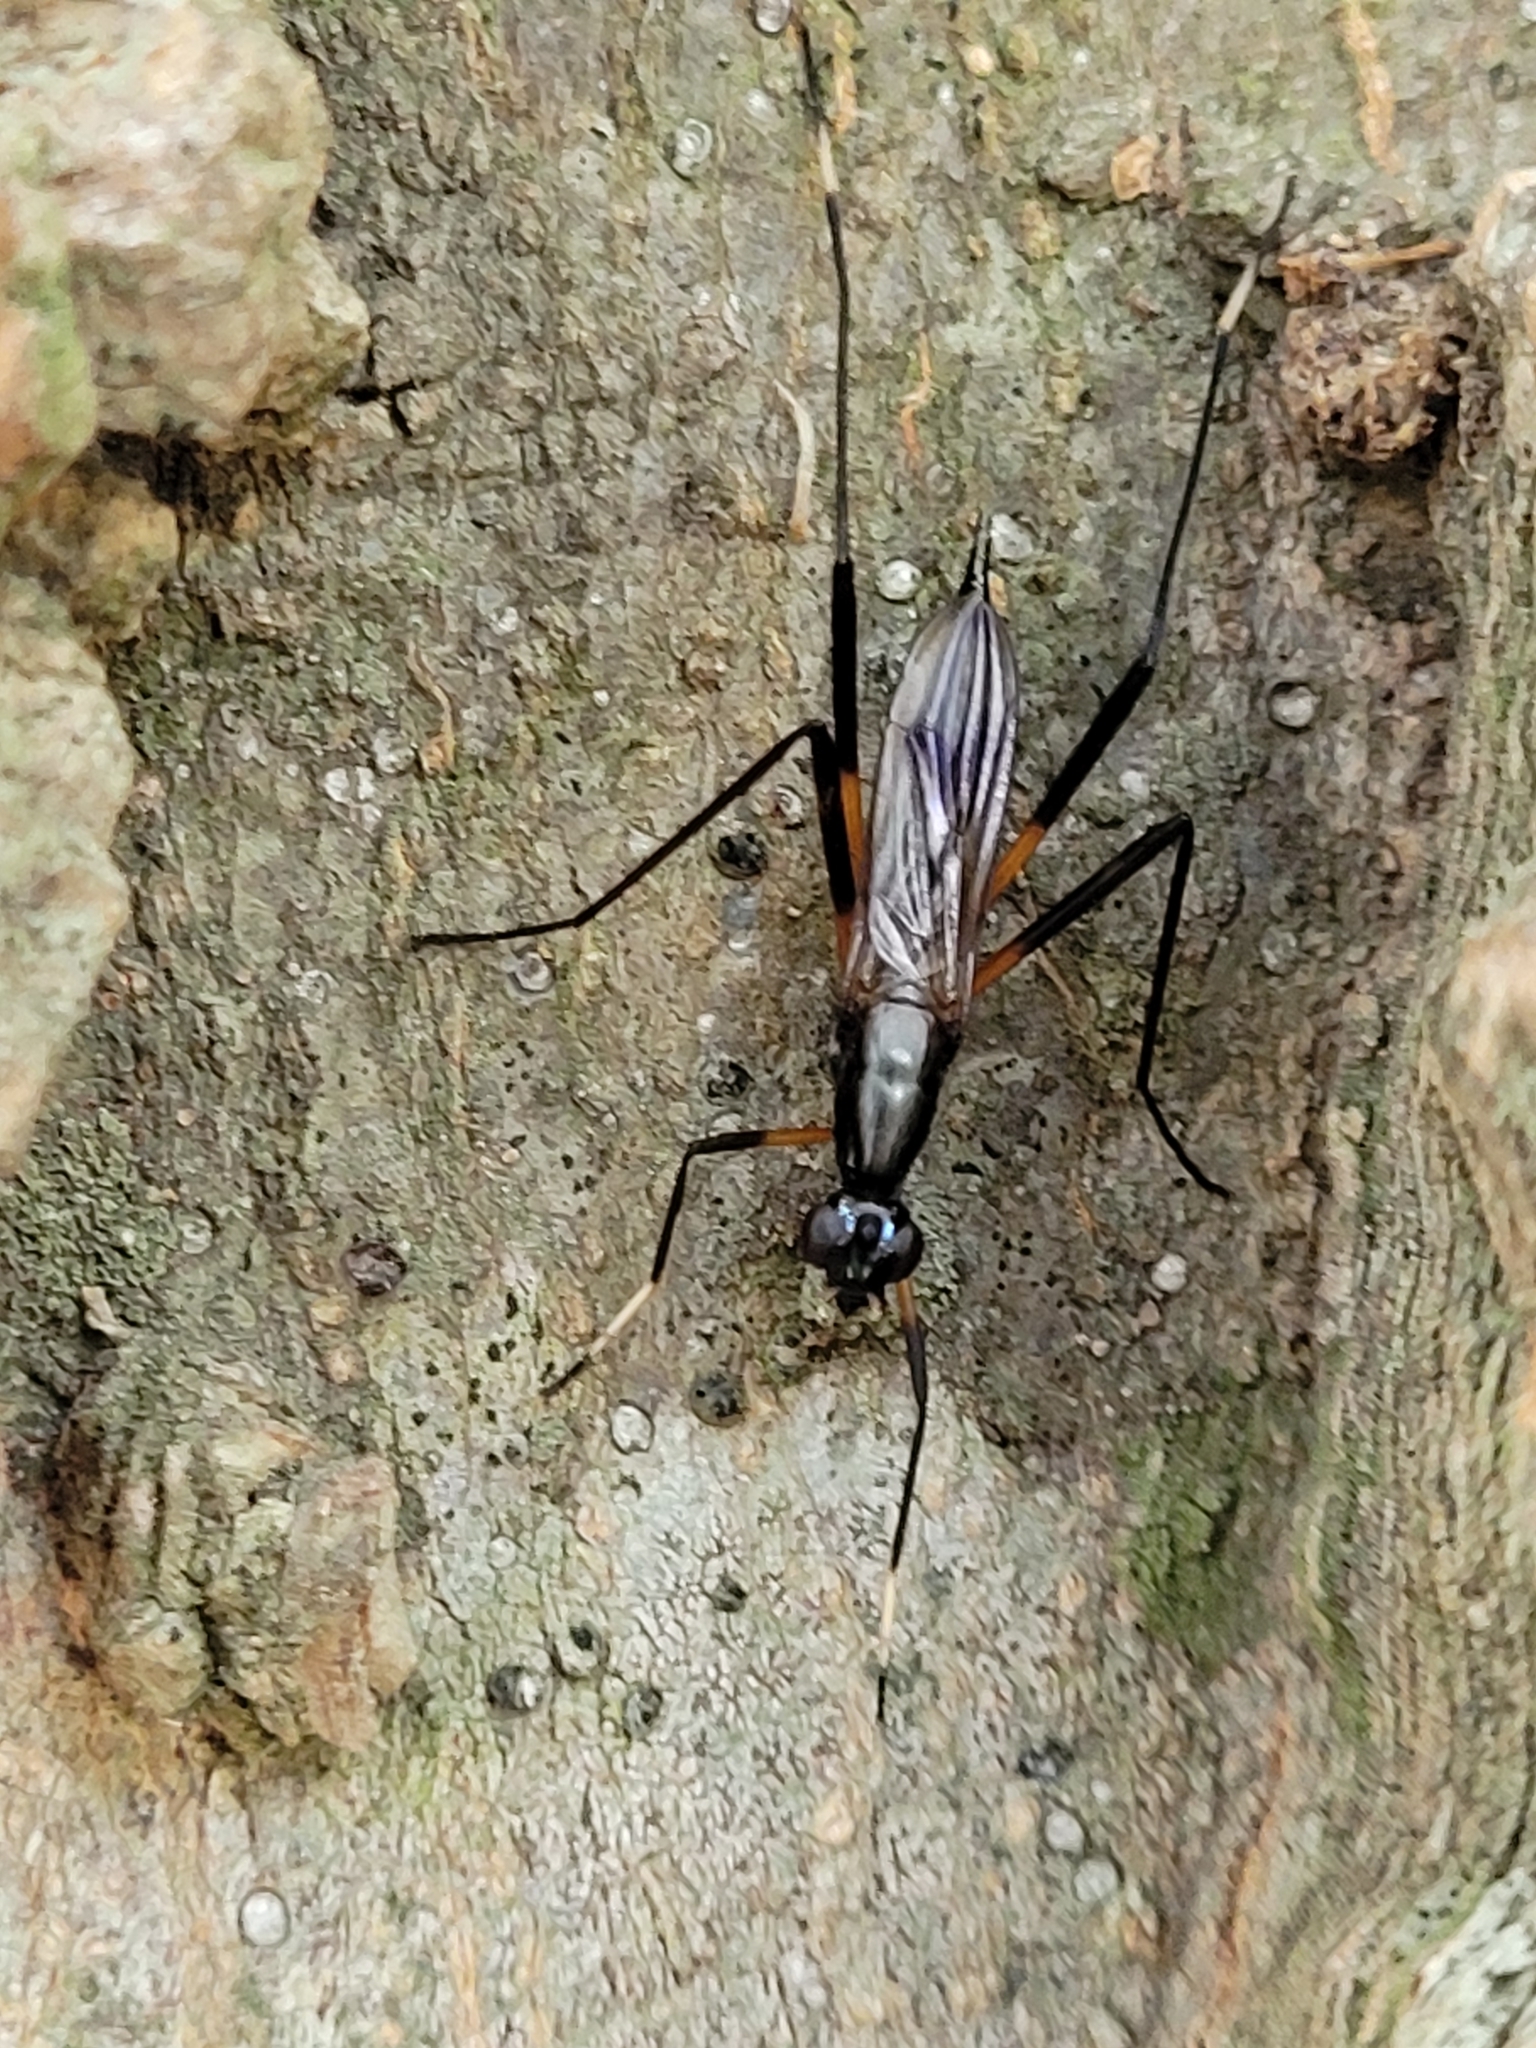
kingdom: Animalia
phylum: Arthropoda
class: Insecta
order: Diptera
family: Micropezidae
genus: Calobatina
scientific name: Calobatina geometra
